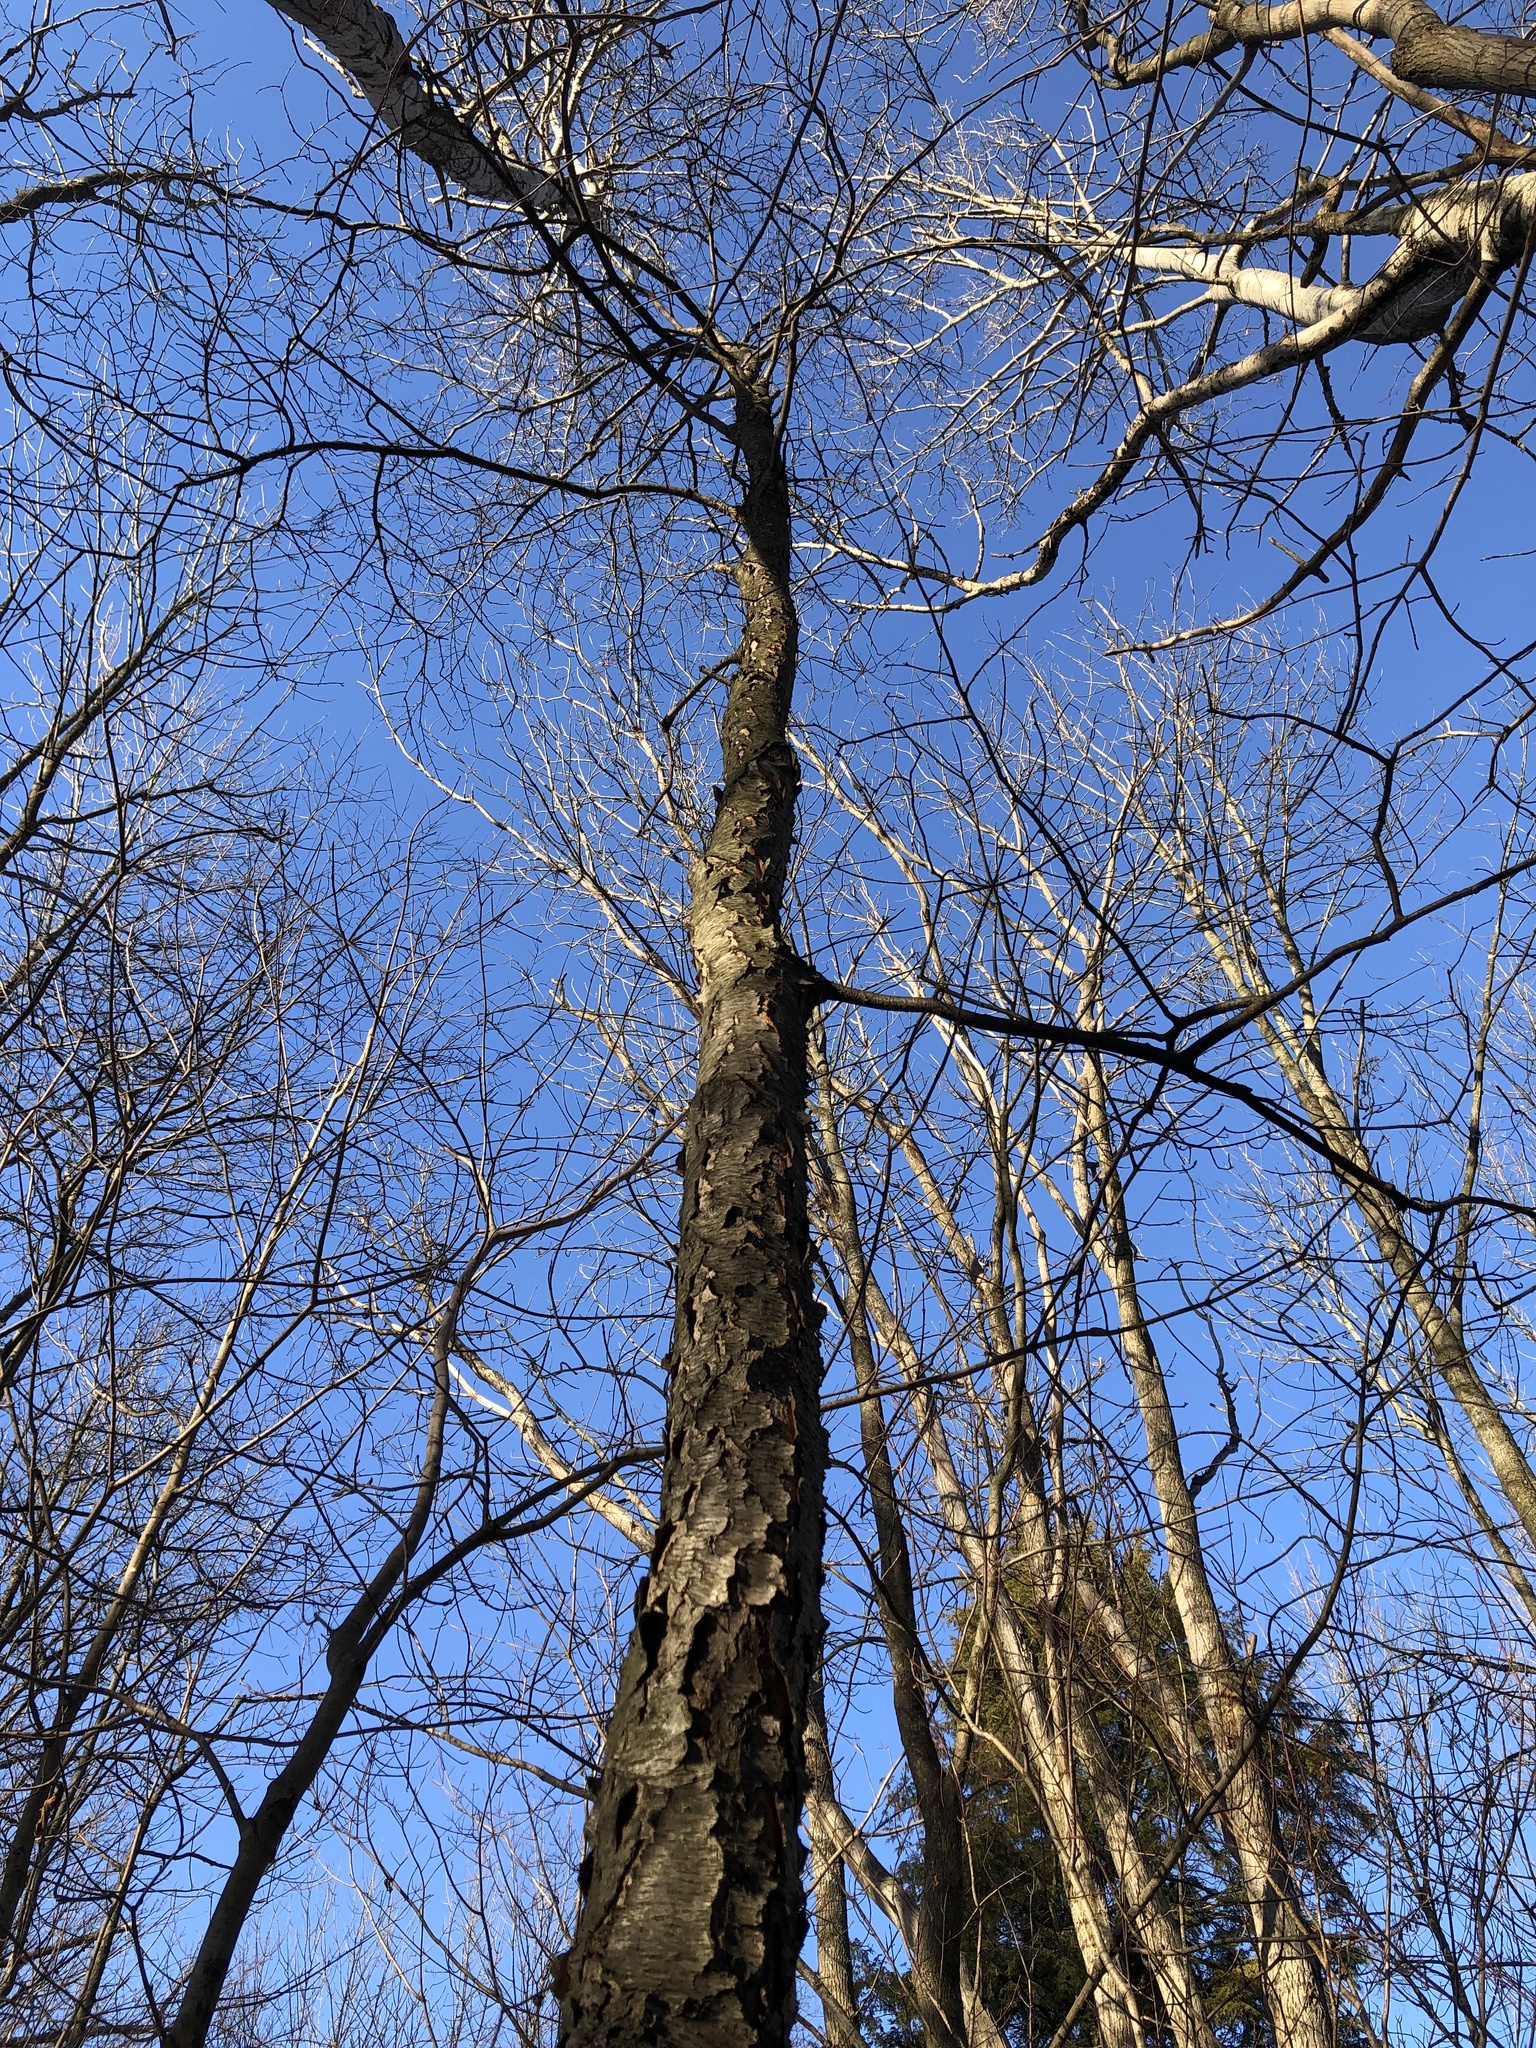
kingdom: Plantae
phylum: Tracheophyta
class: Magnoliopsida
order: Rosales
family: Rosaceae
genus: Prunus
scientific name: Prunus serotina
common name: Black cherry
